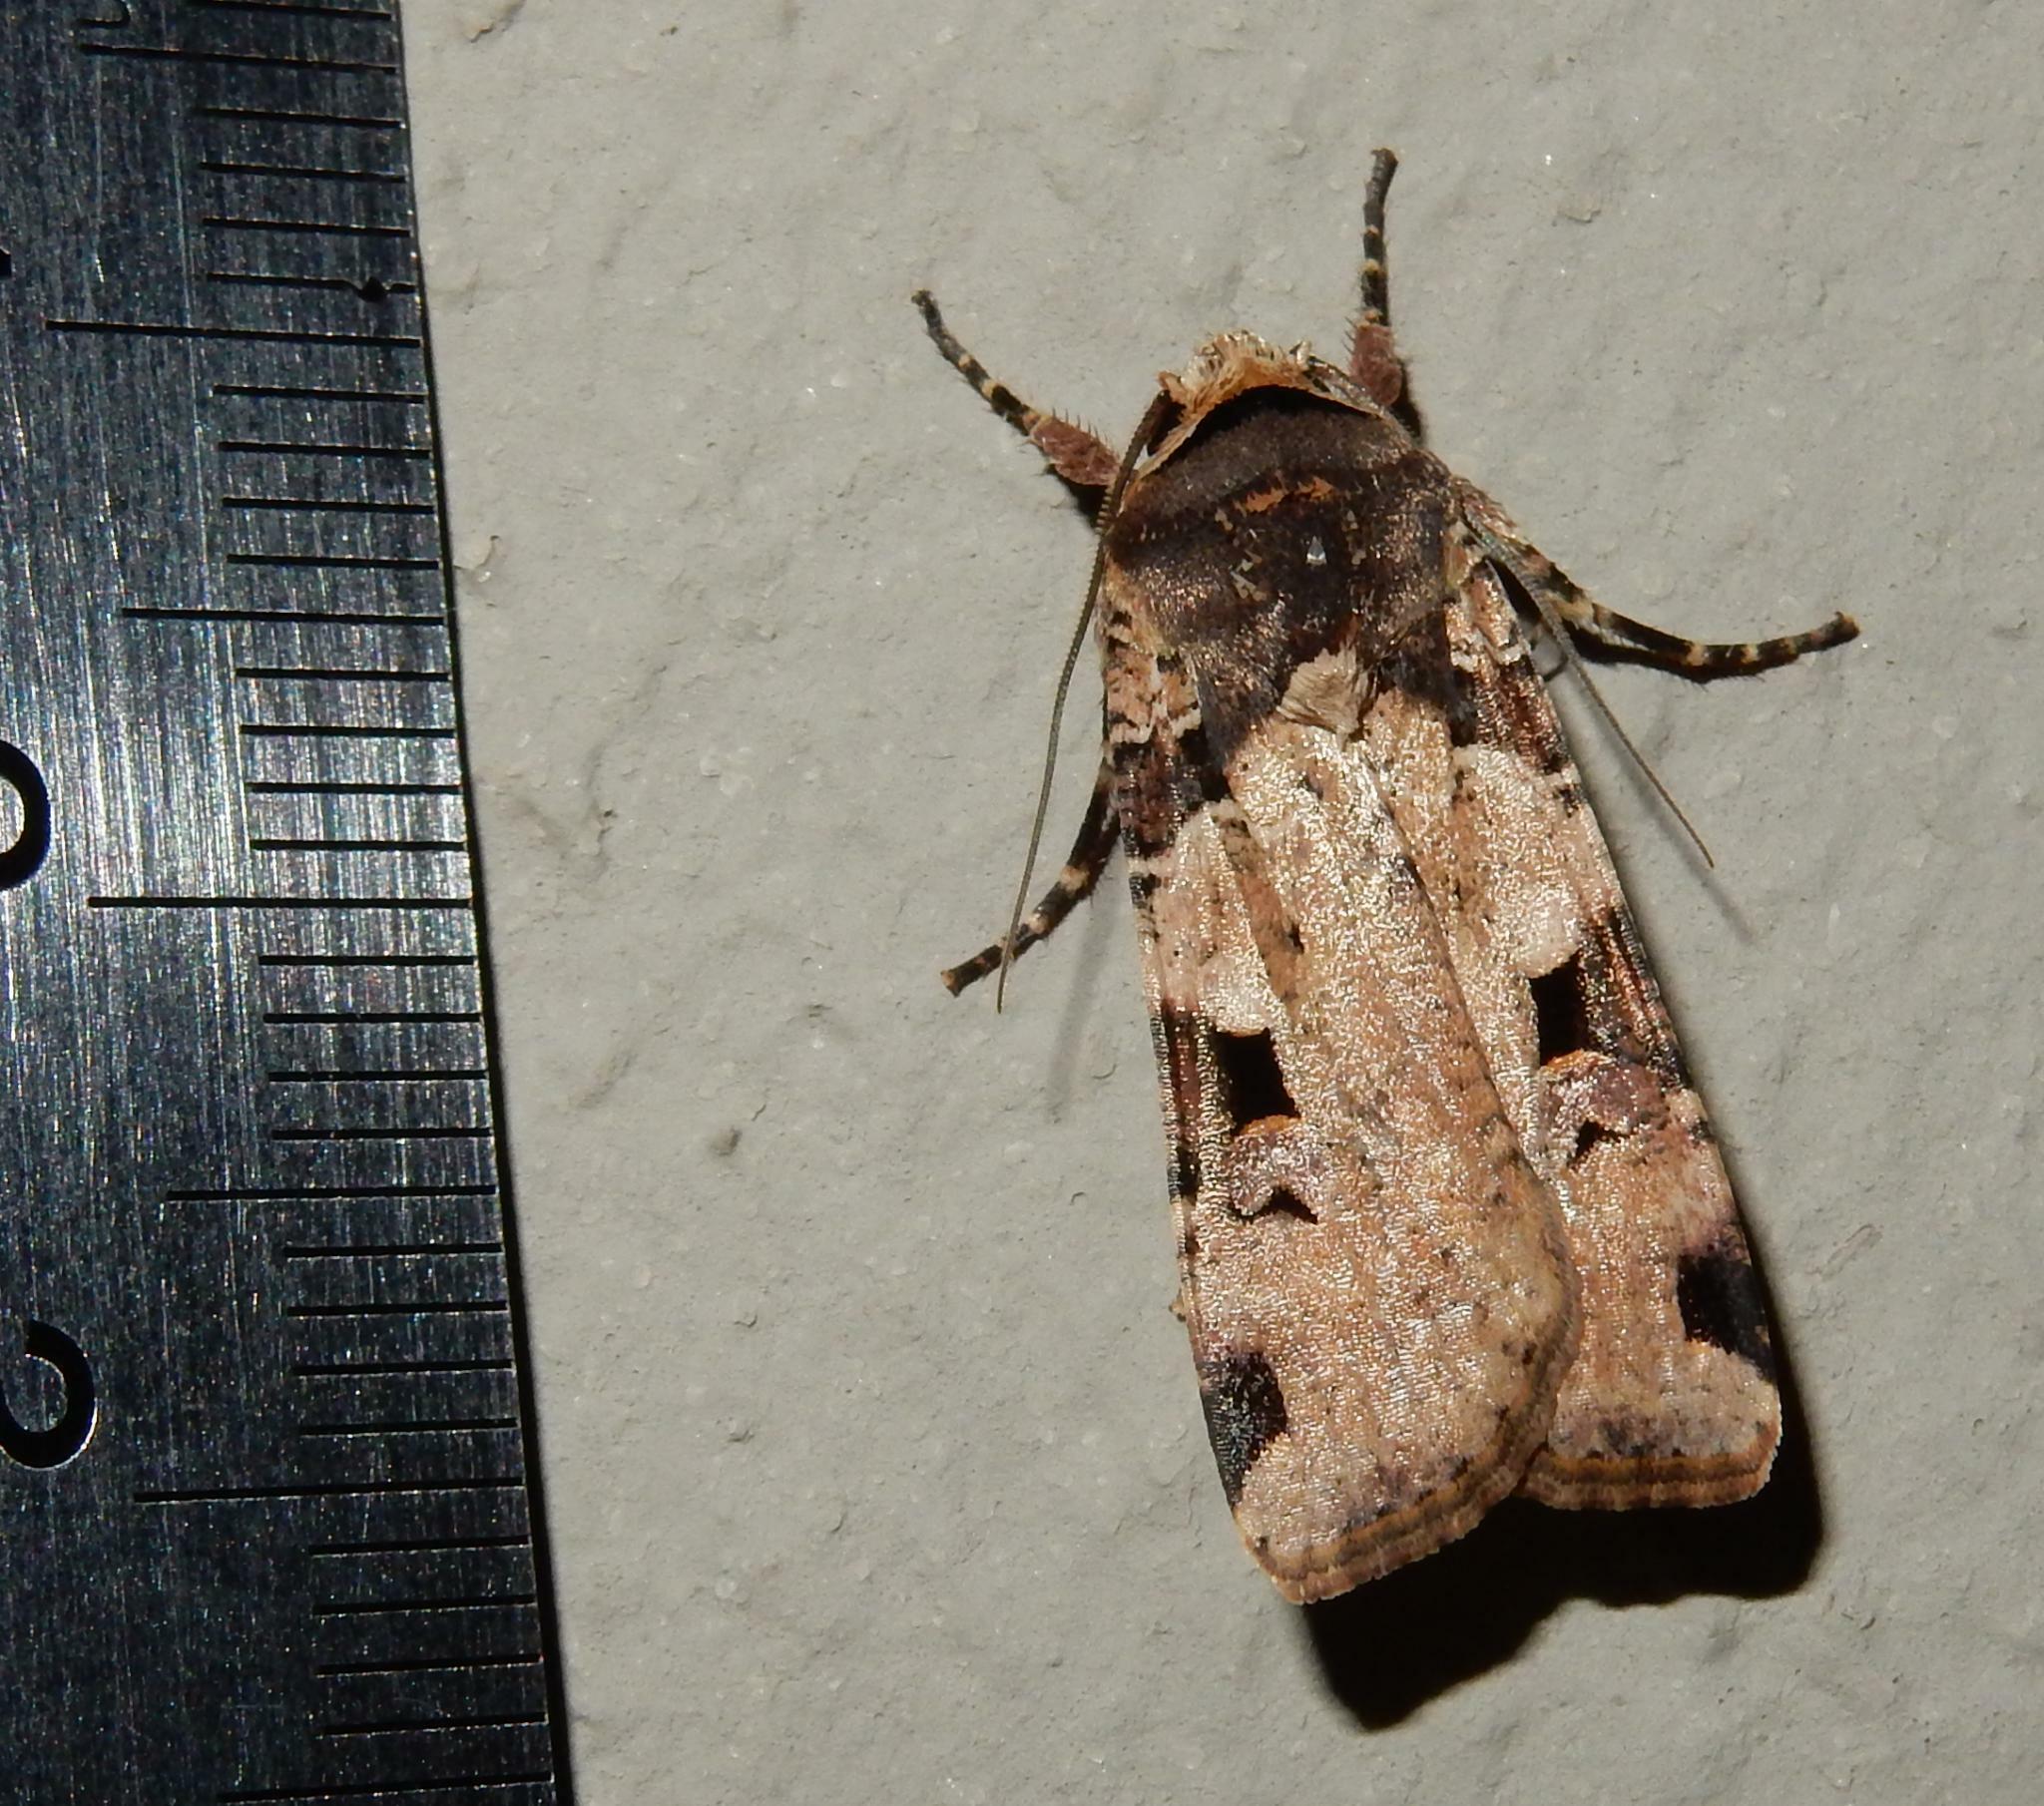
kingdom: Animalia
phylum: Arthropoda
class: Insecta
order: Lepidoptera
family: Noctuidae
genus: Mentaxya
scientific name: Mentaxya albifrons
